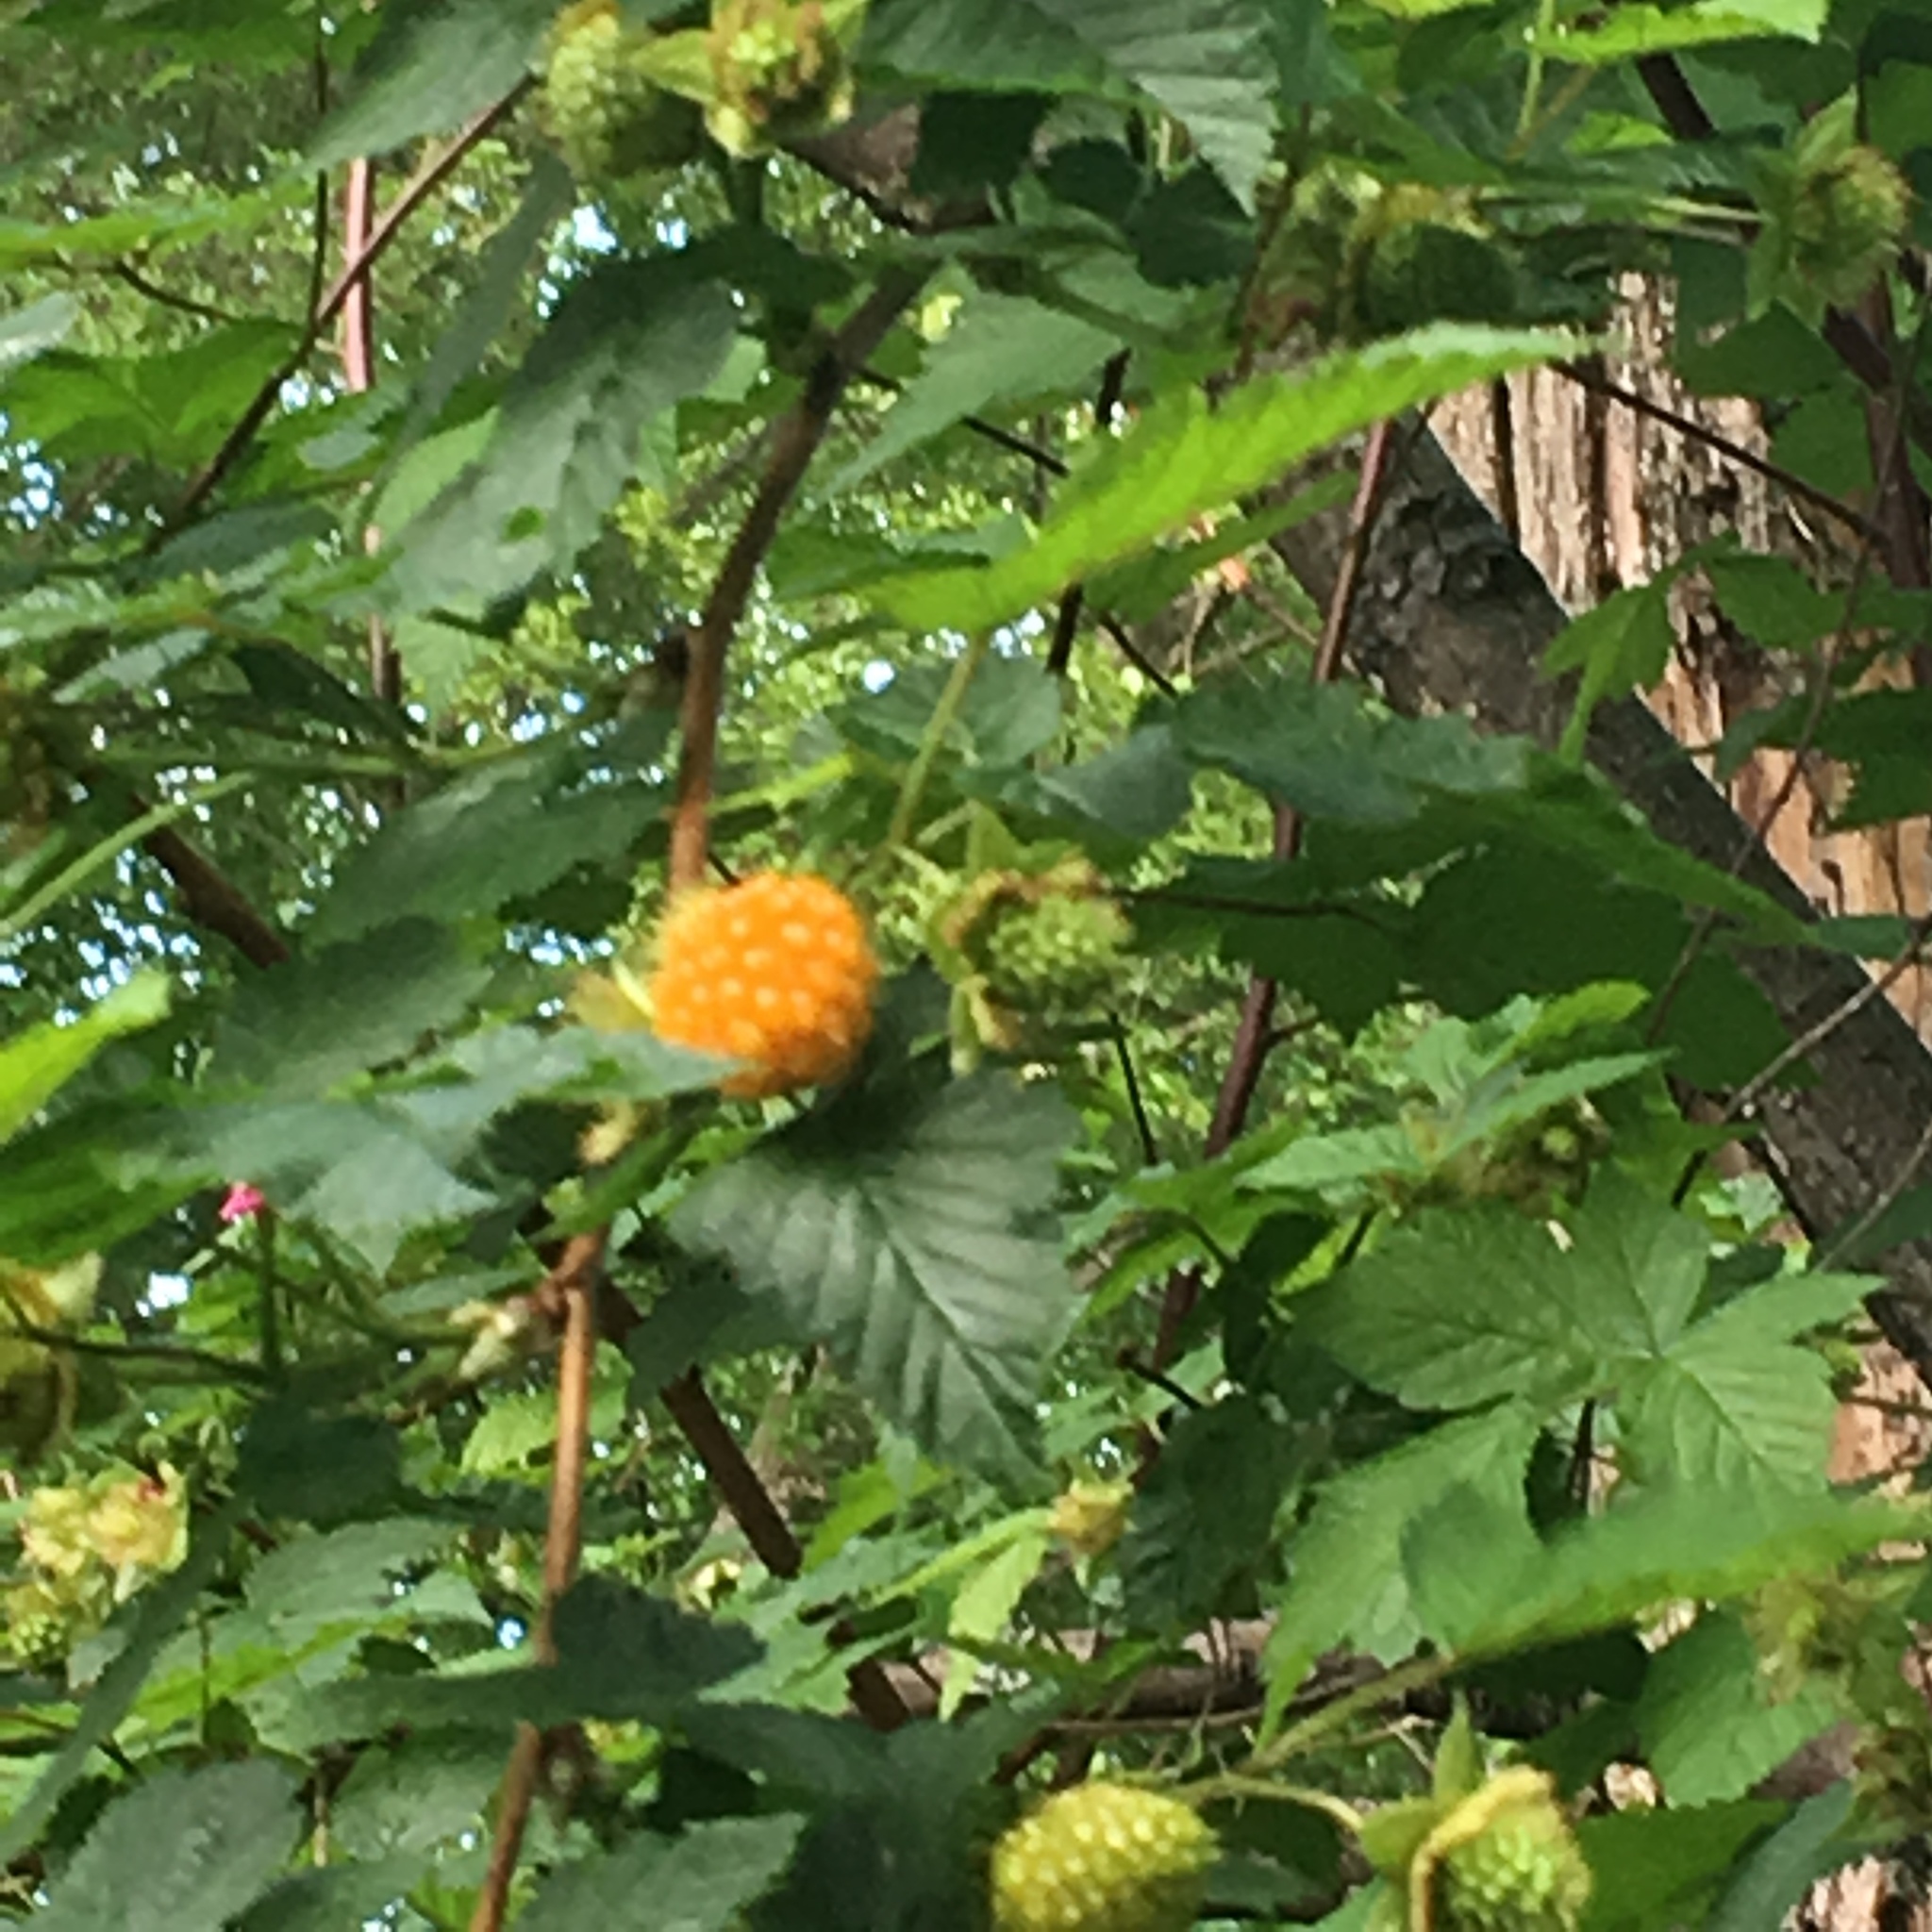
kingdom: Plantae
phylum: Tracheophyta
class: Magnoliopsida
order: Rosales
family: Rosaceae
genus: Rubus
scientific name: Rubus spectabilis
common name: Salmonberry
